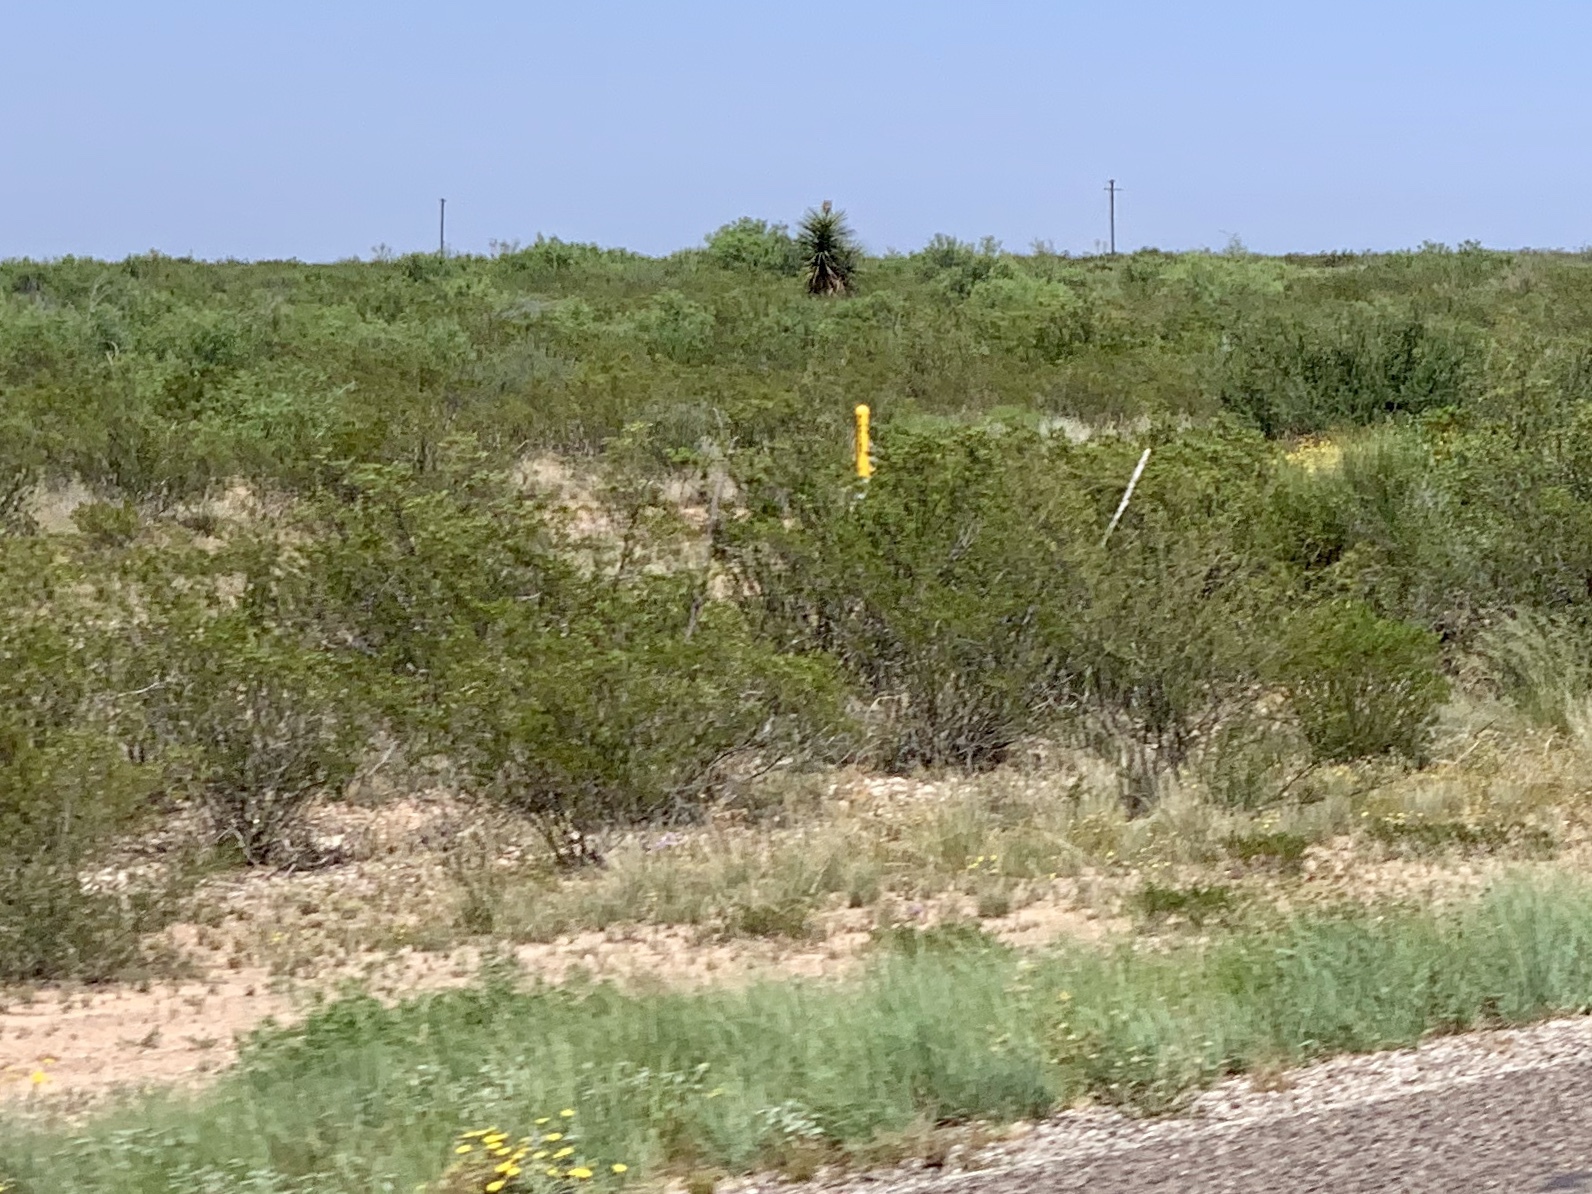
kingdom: Plantae
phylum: Tracheophyta
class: Magnoliopsida
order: Zygophyllales
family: Zygophyllaceae
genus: Larrea
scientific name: Larrea tridentata
